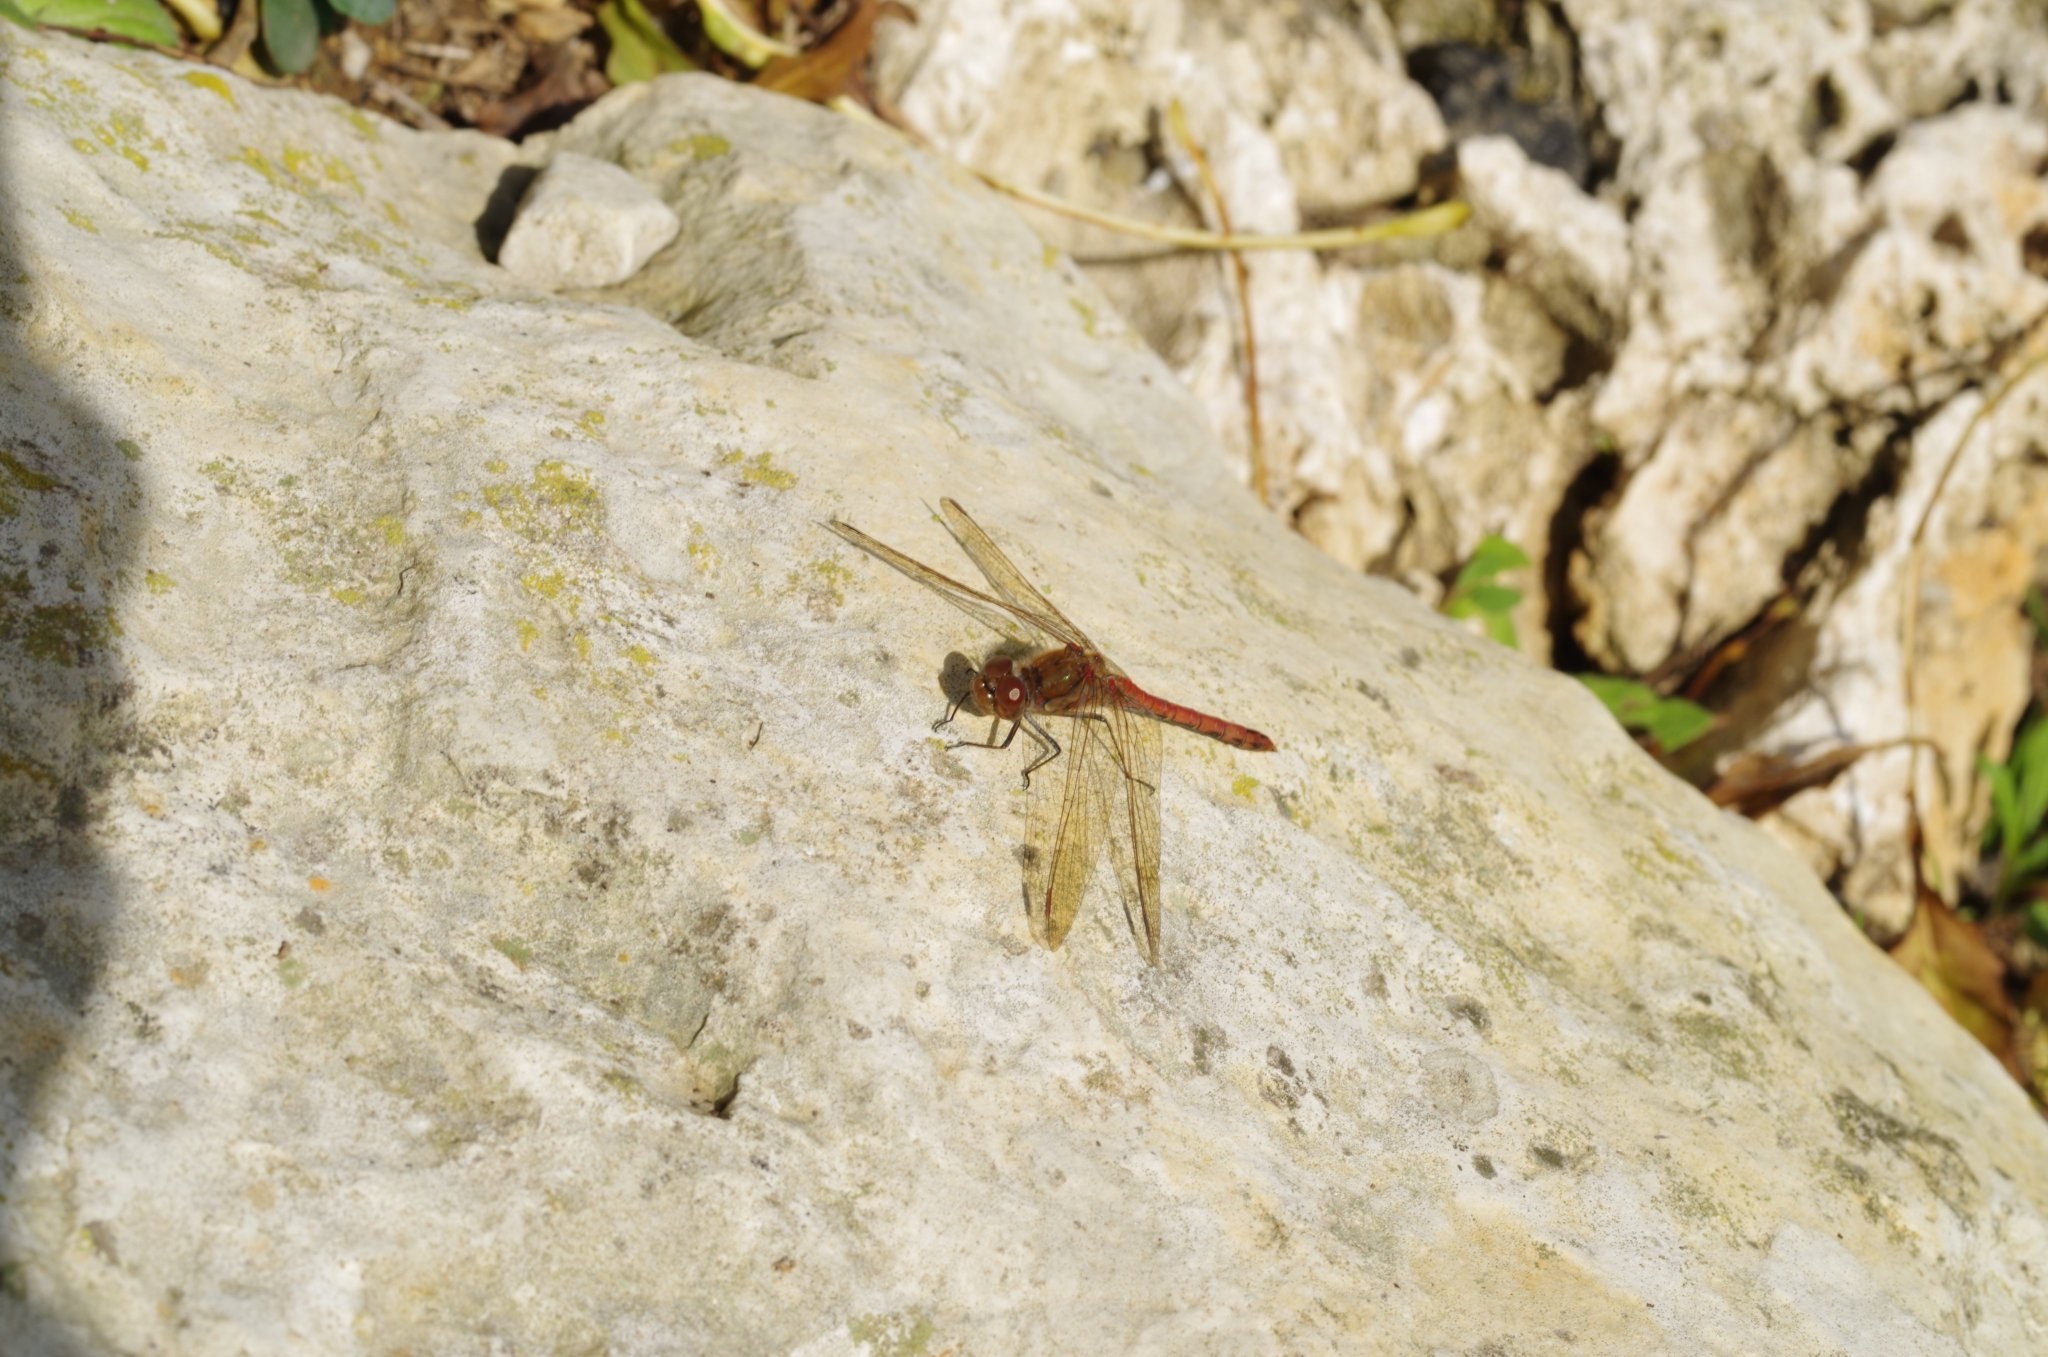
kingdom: Animalia
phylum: Arthropoda
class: Insecta
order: Odonata
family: Libellulidae
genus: Sympetrum
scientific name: Sympetrum striolatum
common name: Common darter
